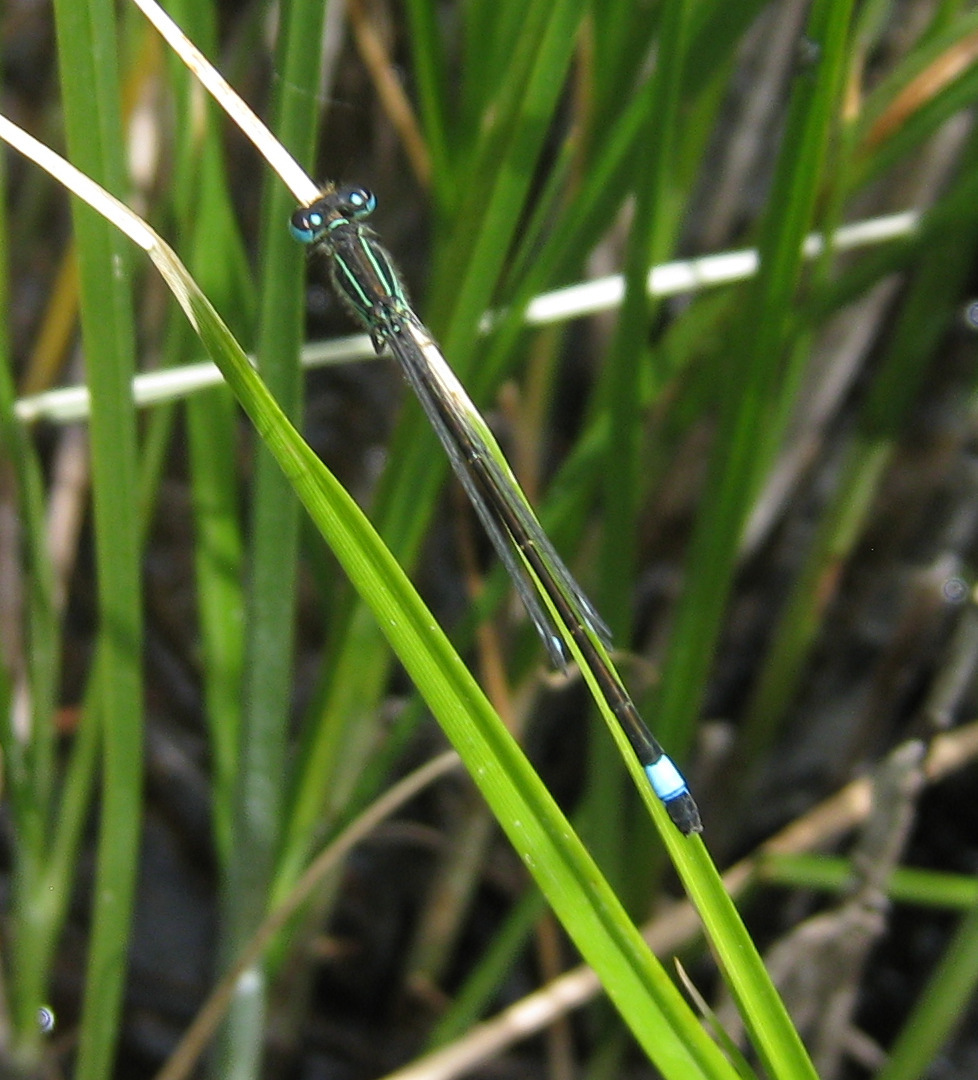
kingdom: Animalia
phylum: Arthropoda
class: Insecta
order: Odonata
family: Coenagrionidae
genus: Ischnura
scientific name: Ischnura genei
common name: Island bluetail
